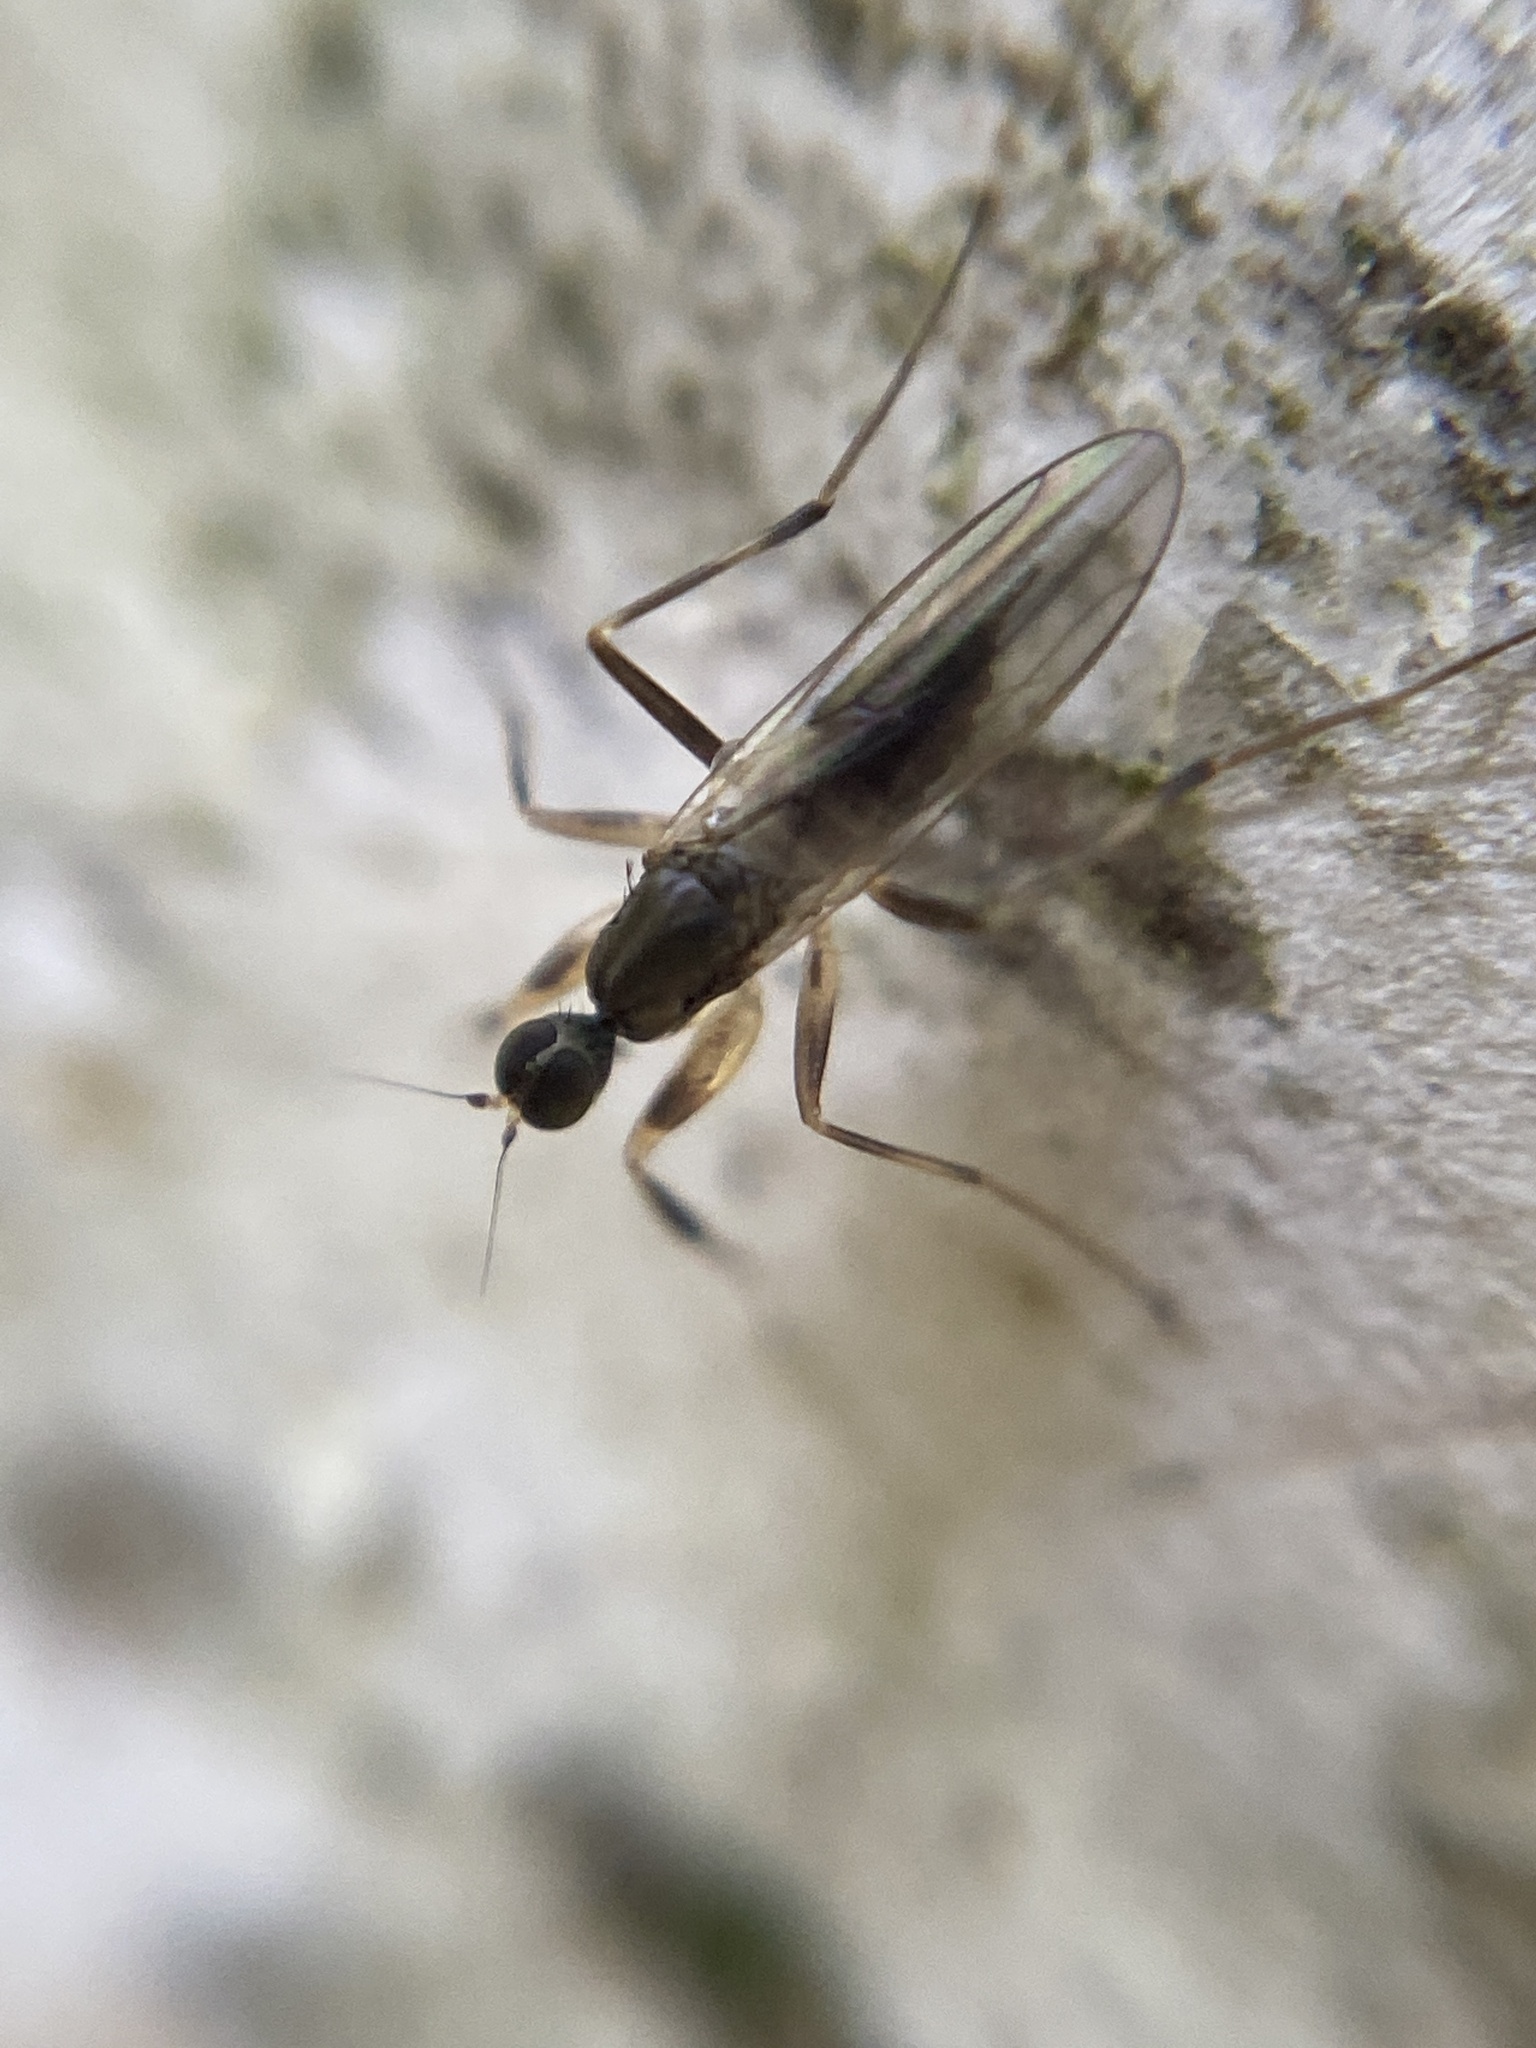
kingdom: Animalia
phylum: Arthropoda
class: Insecta
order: Diptera
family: Hybotidae
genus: Tachypeza
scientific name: Tachypeza nubila
